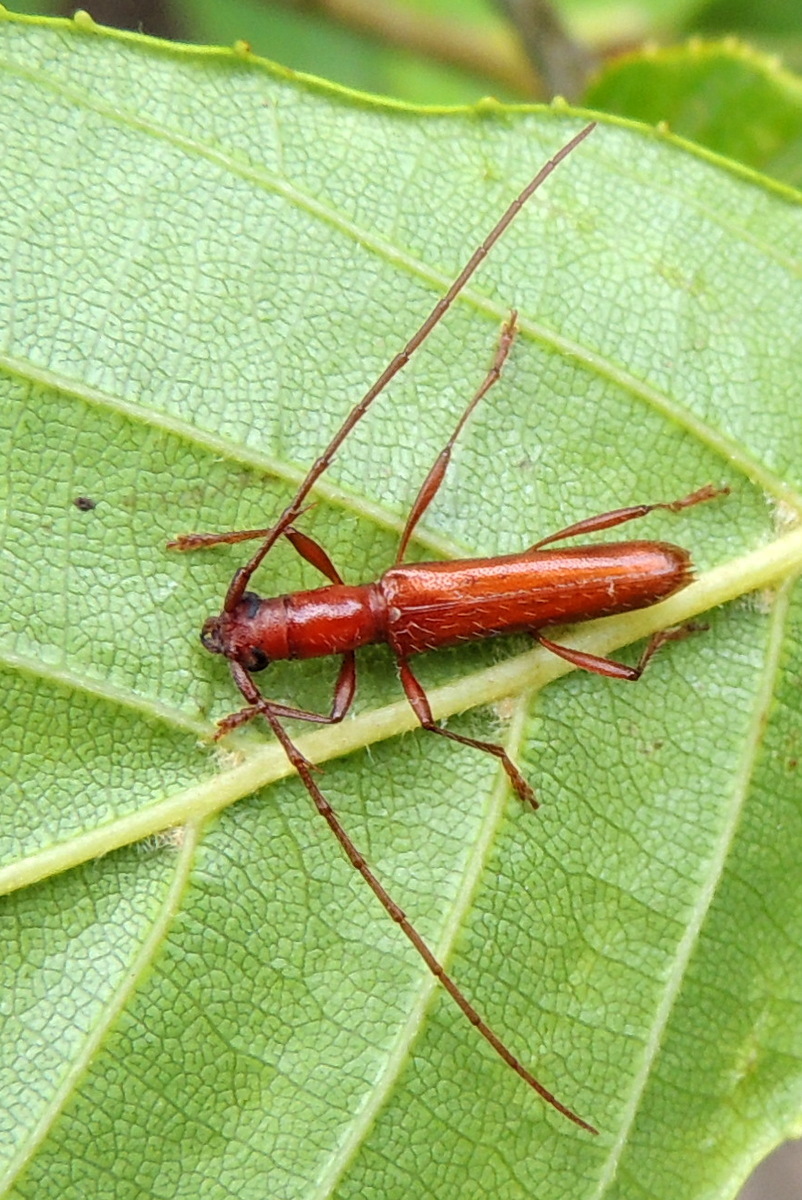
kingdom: Animalia
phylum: Arthropoda
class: Insecta
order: Coleoptera
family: Cerambycidae
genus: Psyrassa
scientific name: Psyrassa pertenuis
